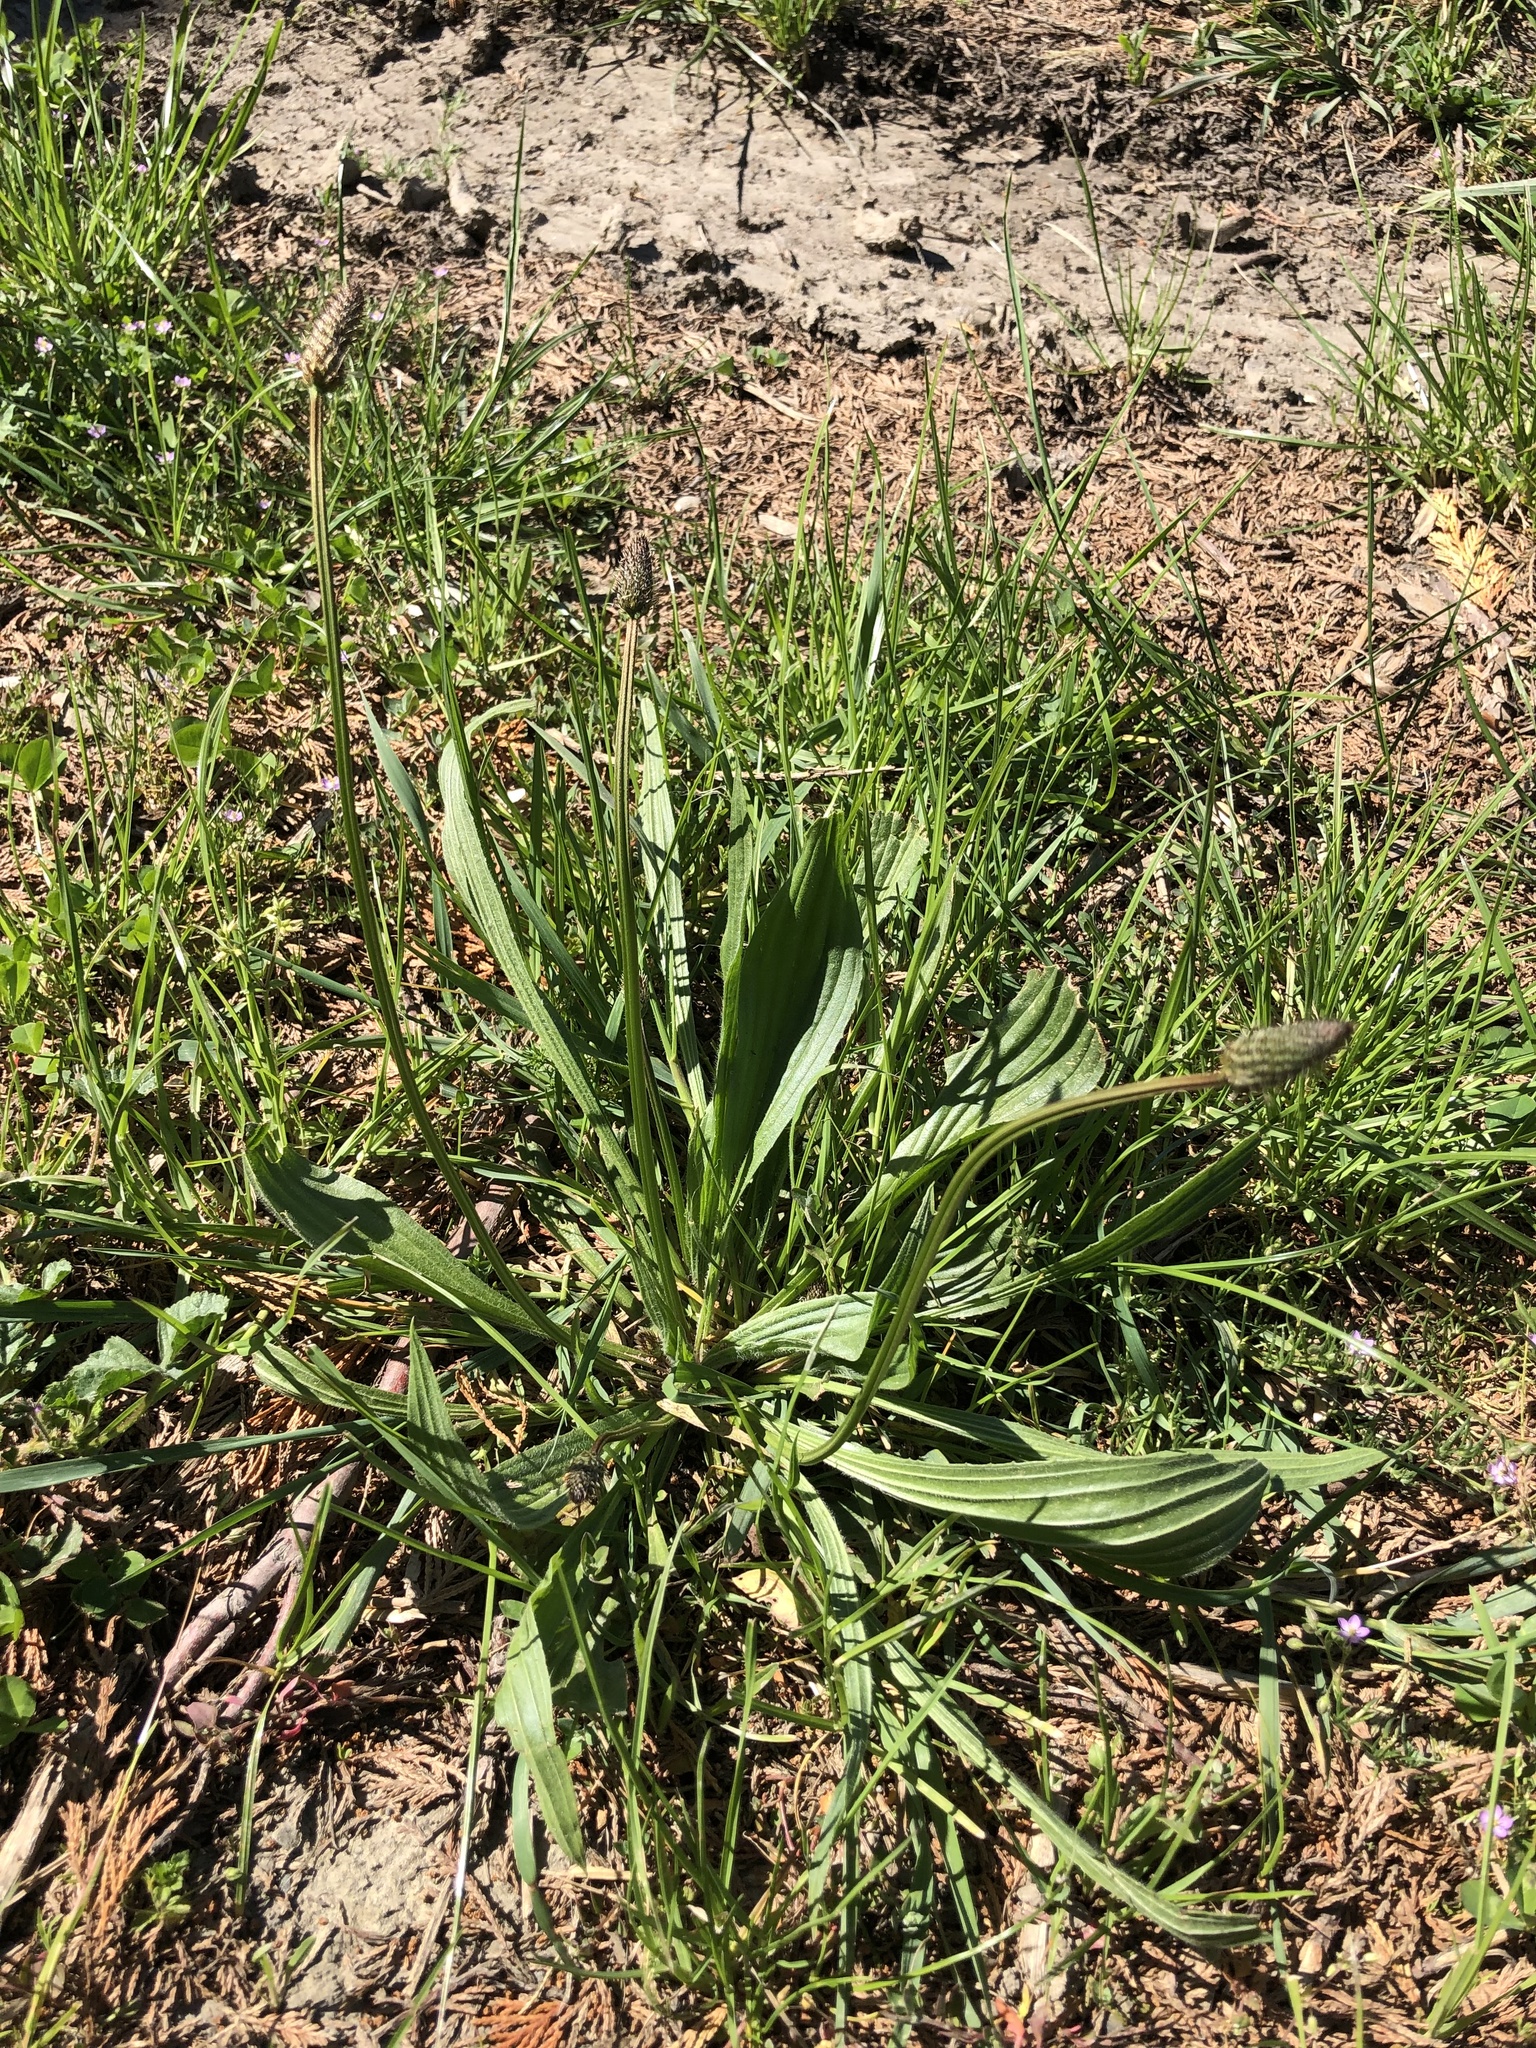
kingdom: Plantae
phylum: Tracheophyta
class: Magnoliopsida
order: Lamiales
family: Plantaginaceae
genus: Plantago
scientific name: Plantago lanceolata
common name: Ribwort plantain
